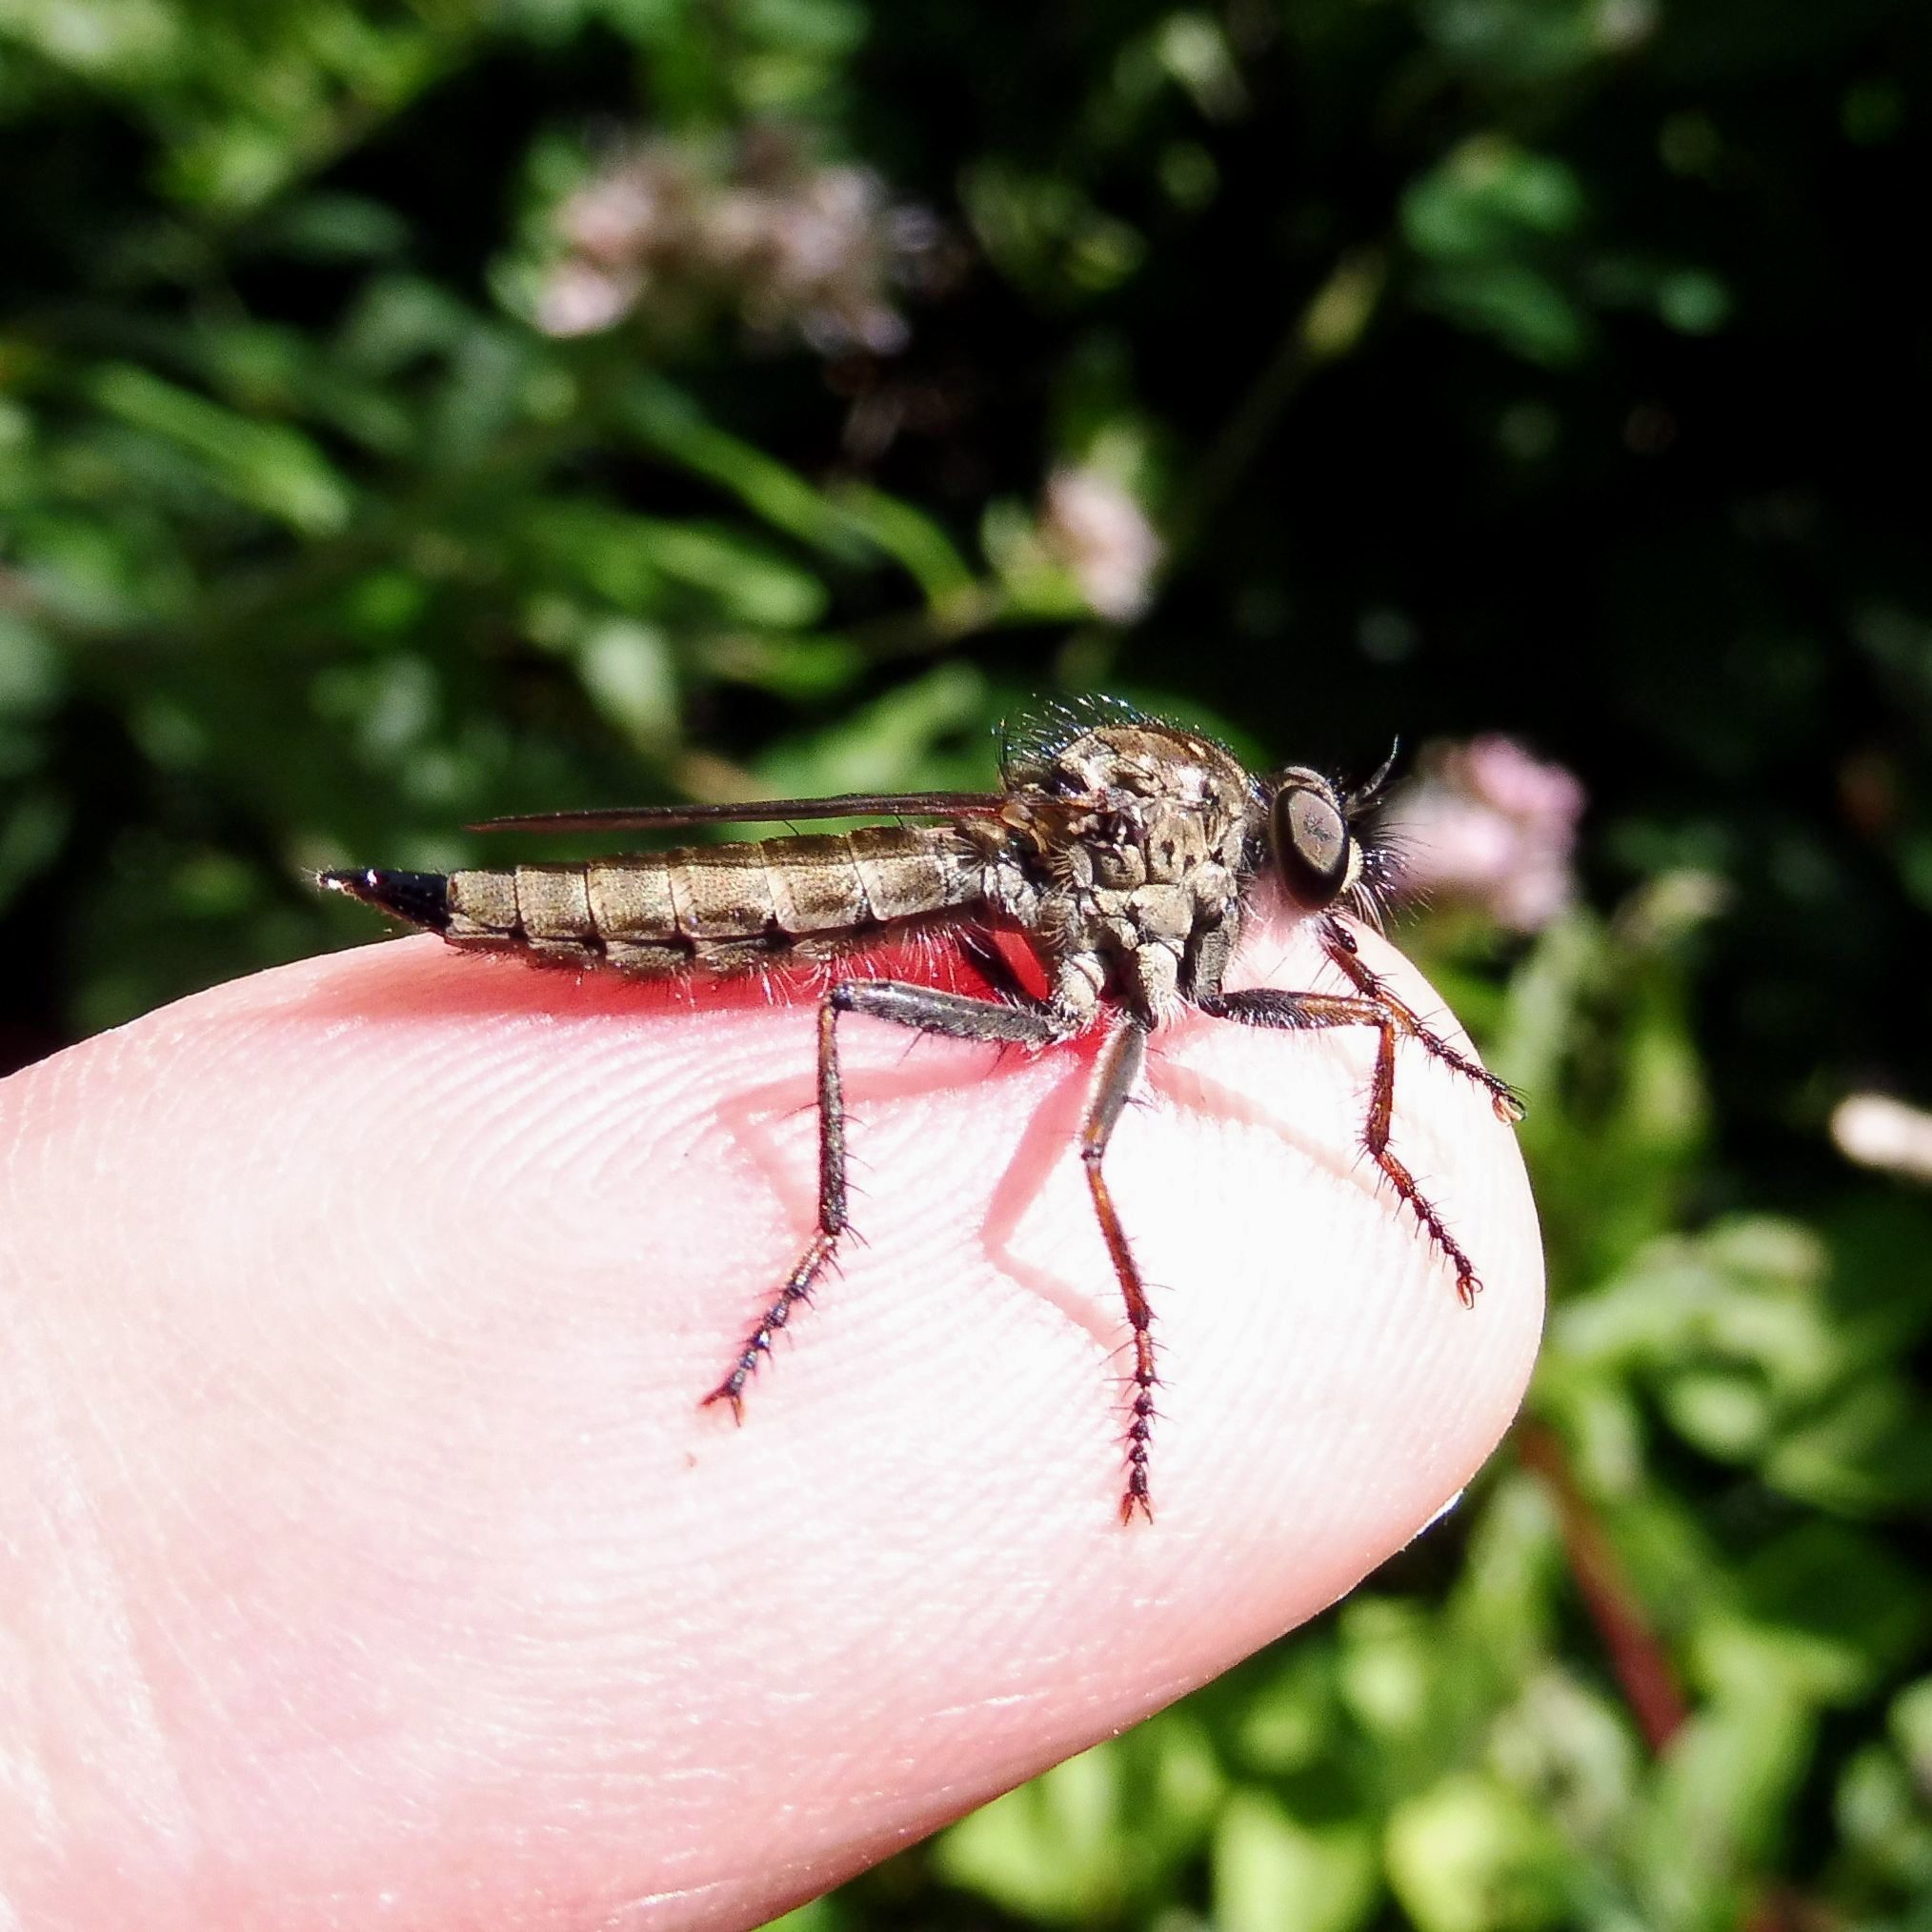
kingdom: Animalia
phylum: Arthropoda
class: Insecta
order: Diptera
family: Asilidae
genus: Machimus
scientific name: Machimus atricapillus
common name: Kite-tailed robberfly
